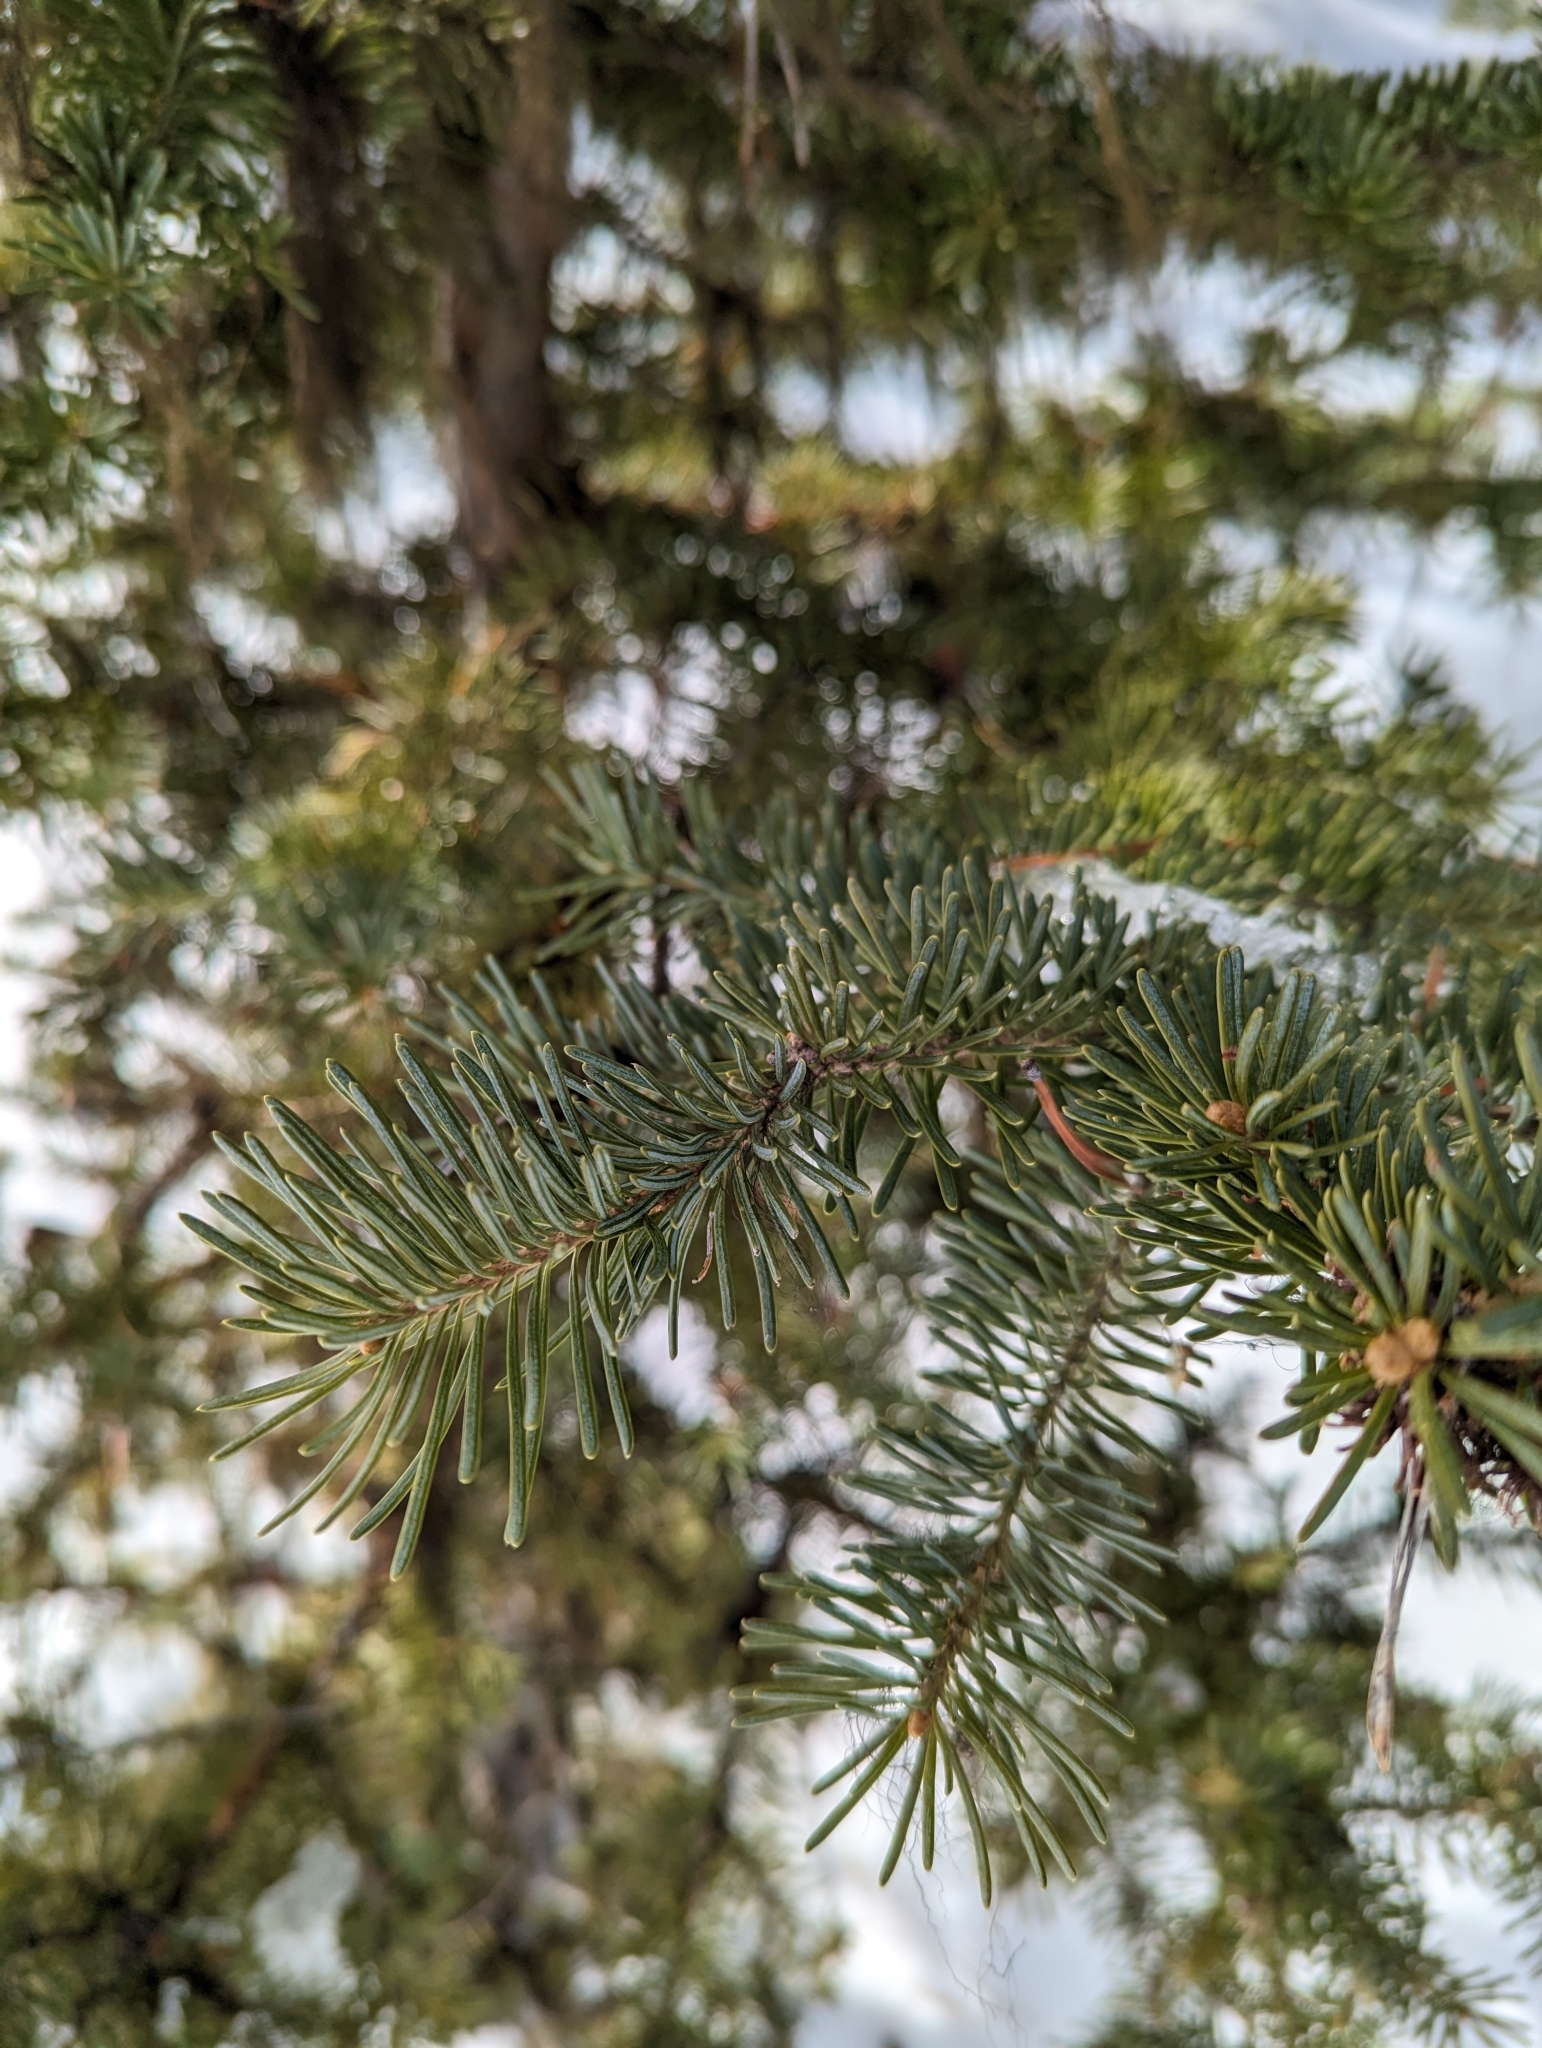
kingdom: Plantae
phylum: Tracheophyta
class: Pinopsida
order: Pinales
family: Pinaceae
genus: Abies
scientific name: Abies lasiocarpa
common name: Subalpine fir
